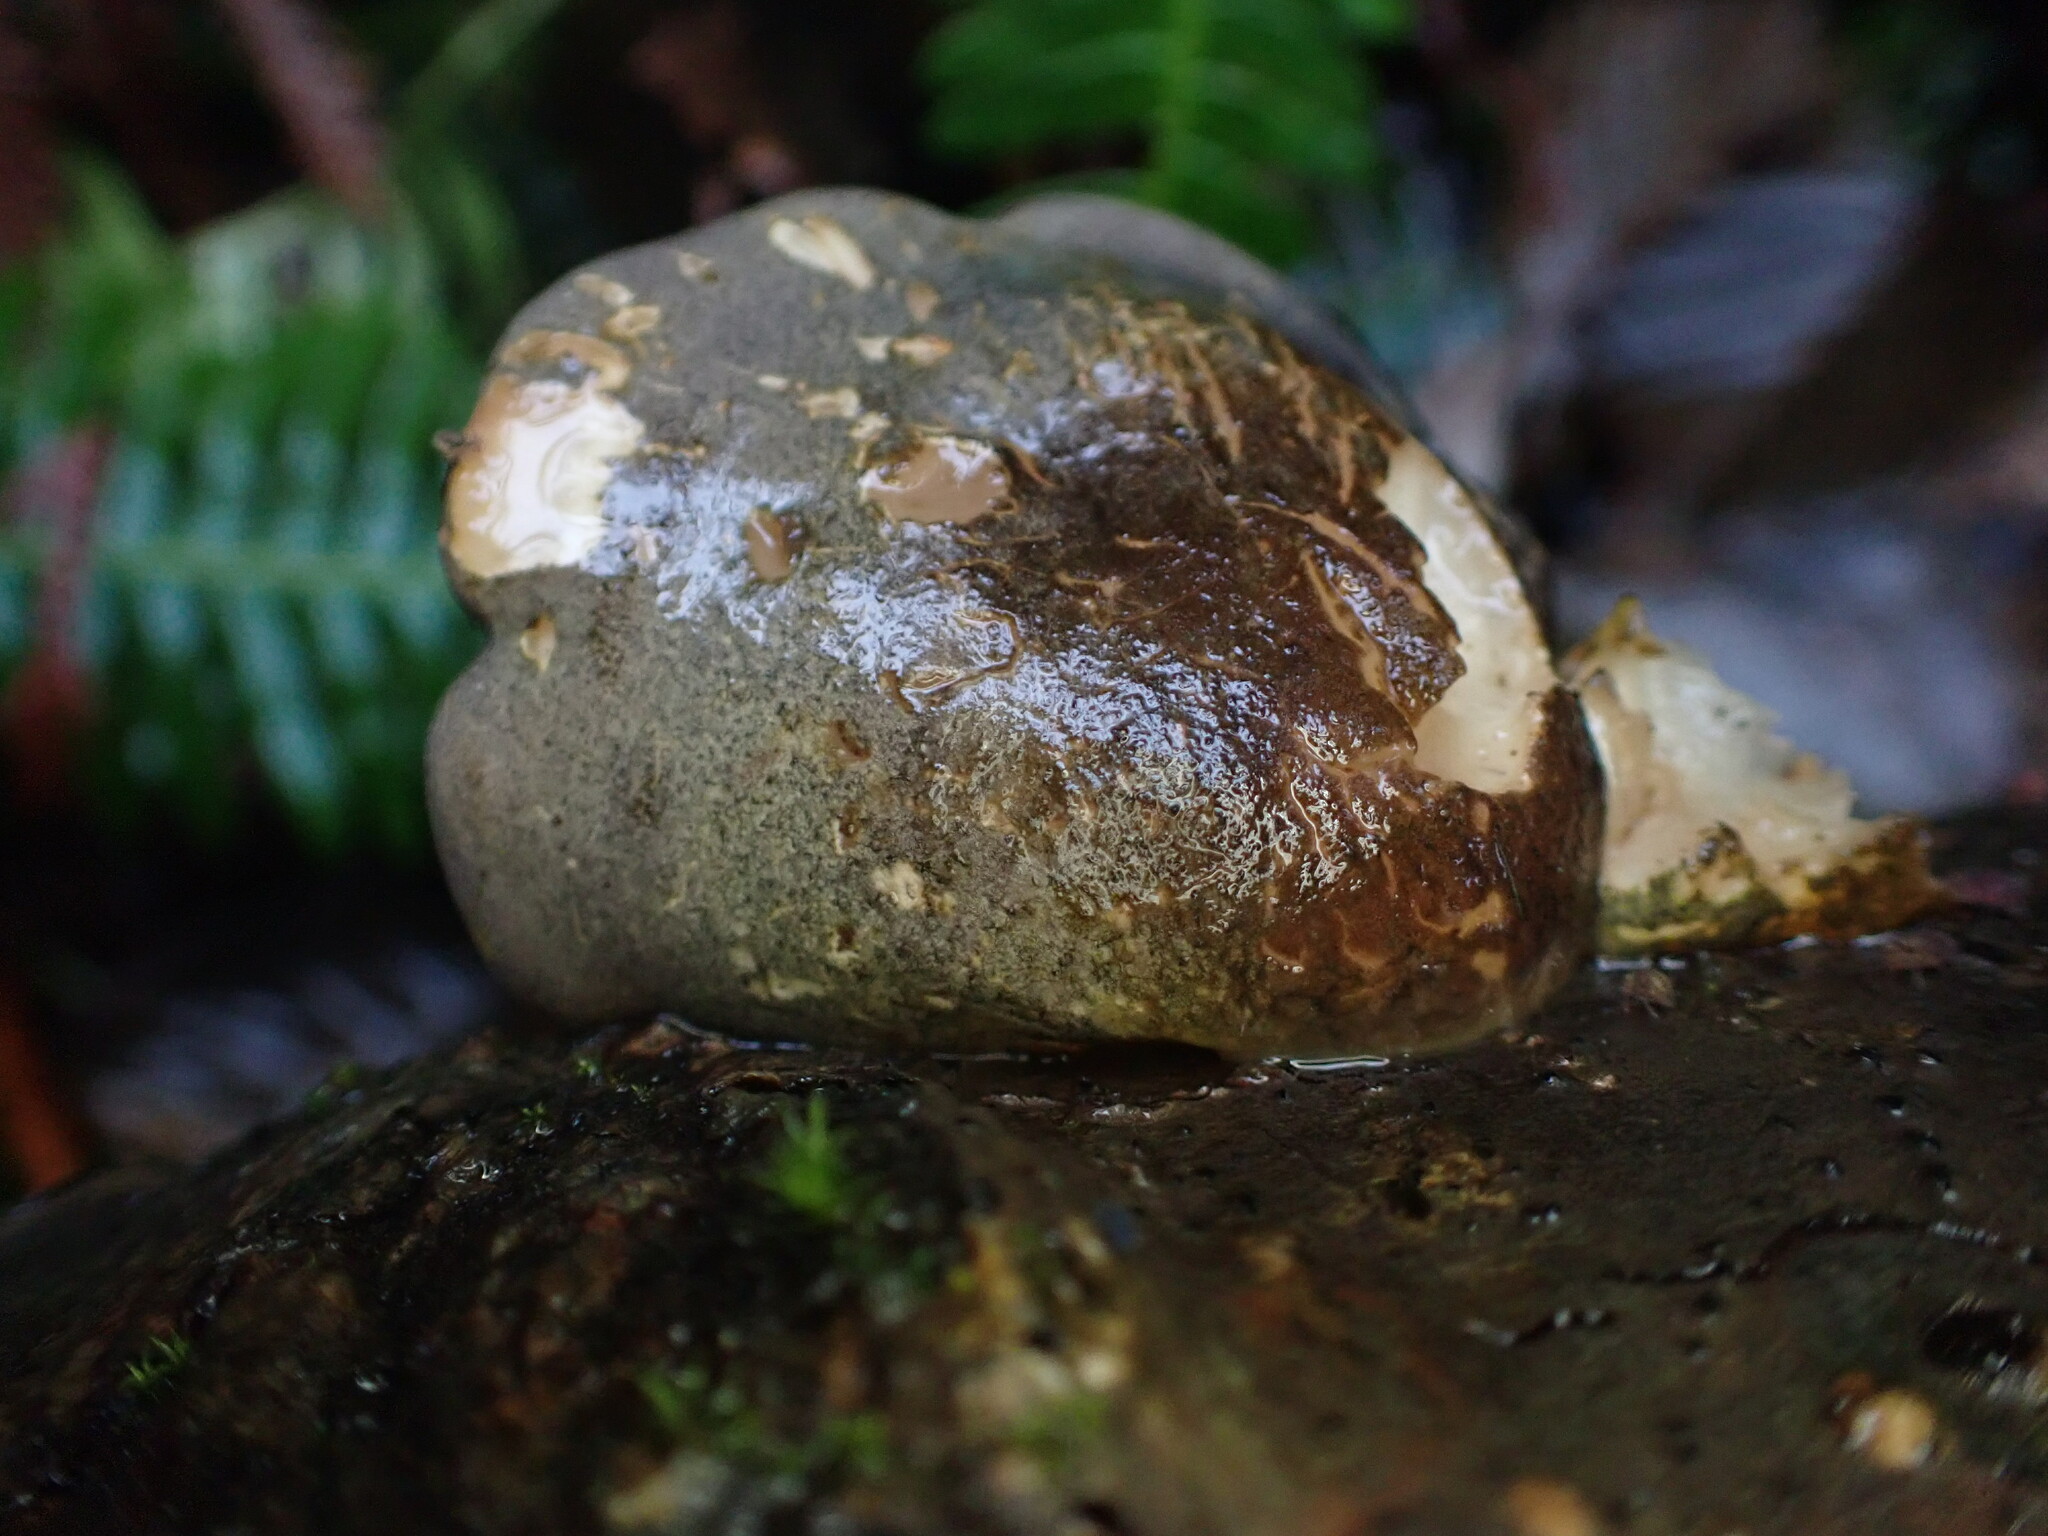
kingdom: Fungi
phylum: Basidiomycota
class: Agaricomycetes
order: Agaricales
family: Sarcomyxaceae
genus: Sarcomyxa
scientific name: Sarcomyxa serotina
